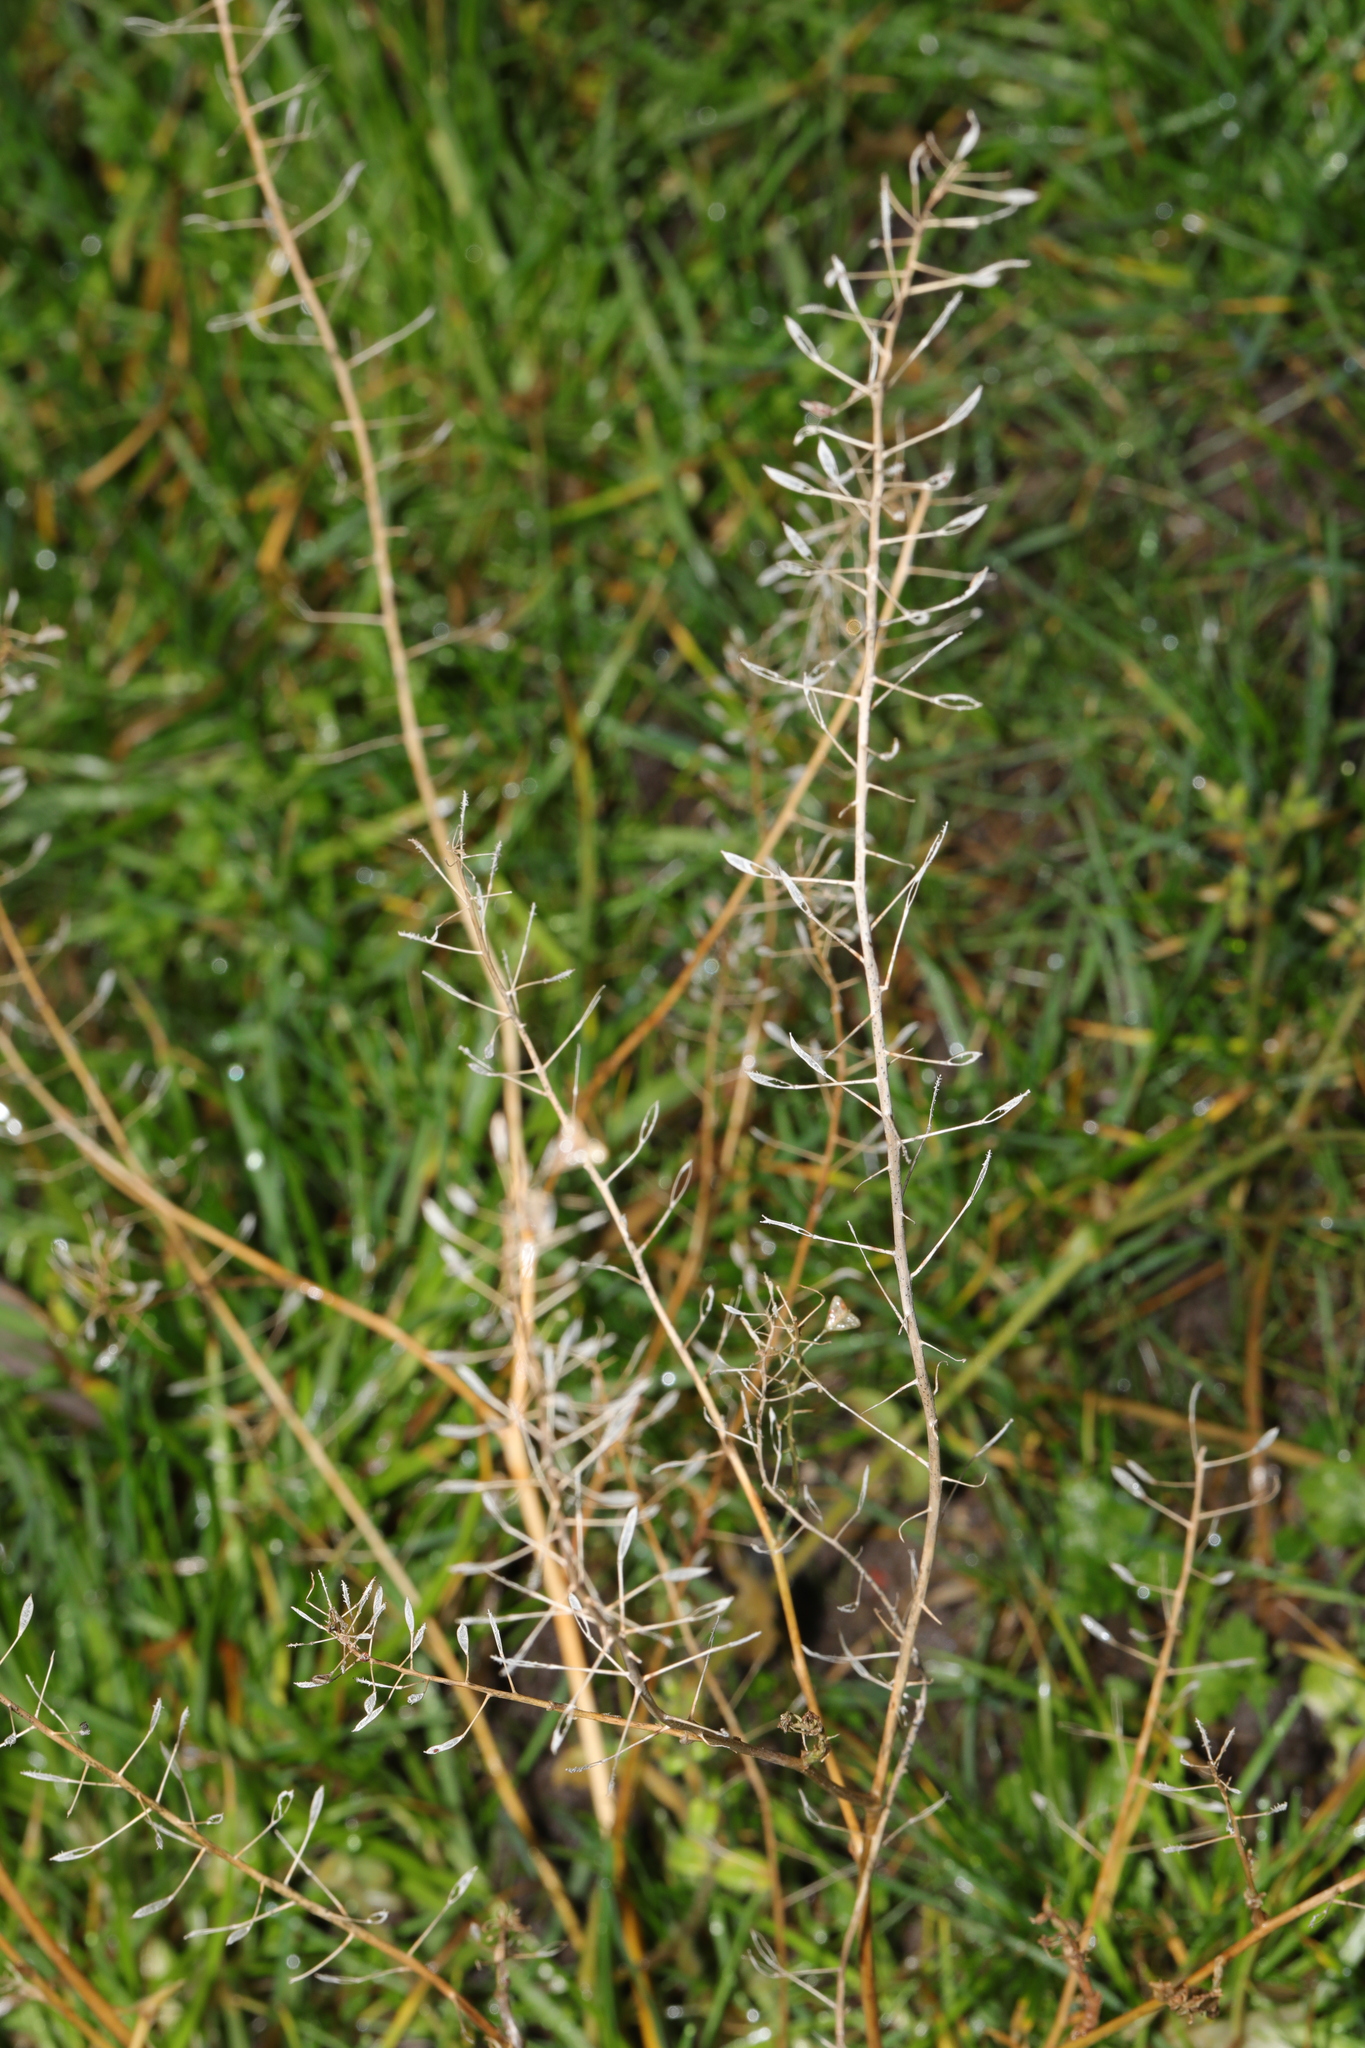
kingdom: Plantae
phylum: Tracheophyta
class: Magnoliopsida
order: Brassicales
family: Brassicaceae
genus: Capsella
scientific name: Capsella bursa-pastoris
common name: Shepherd's purse
